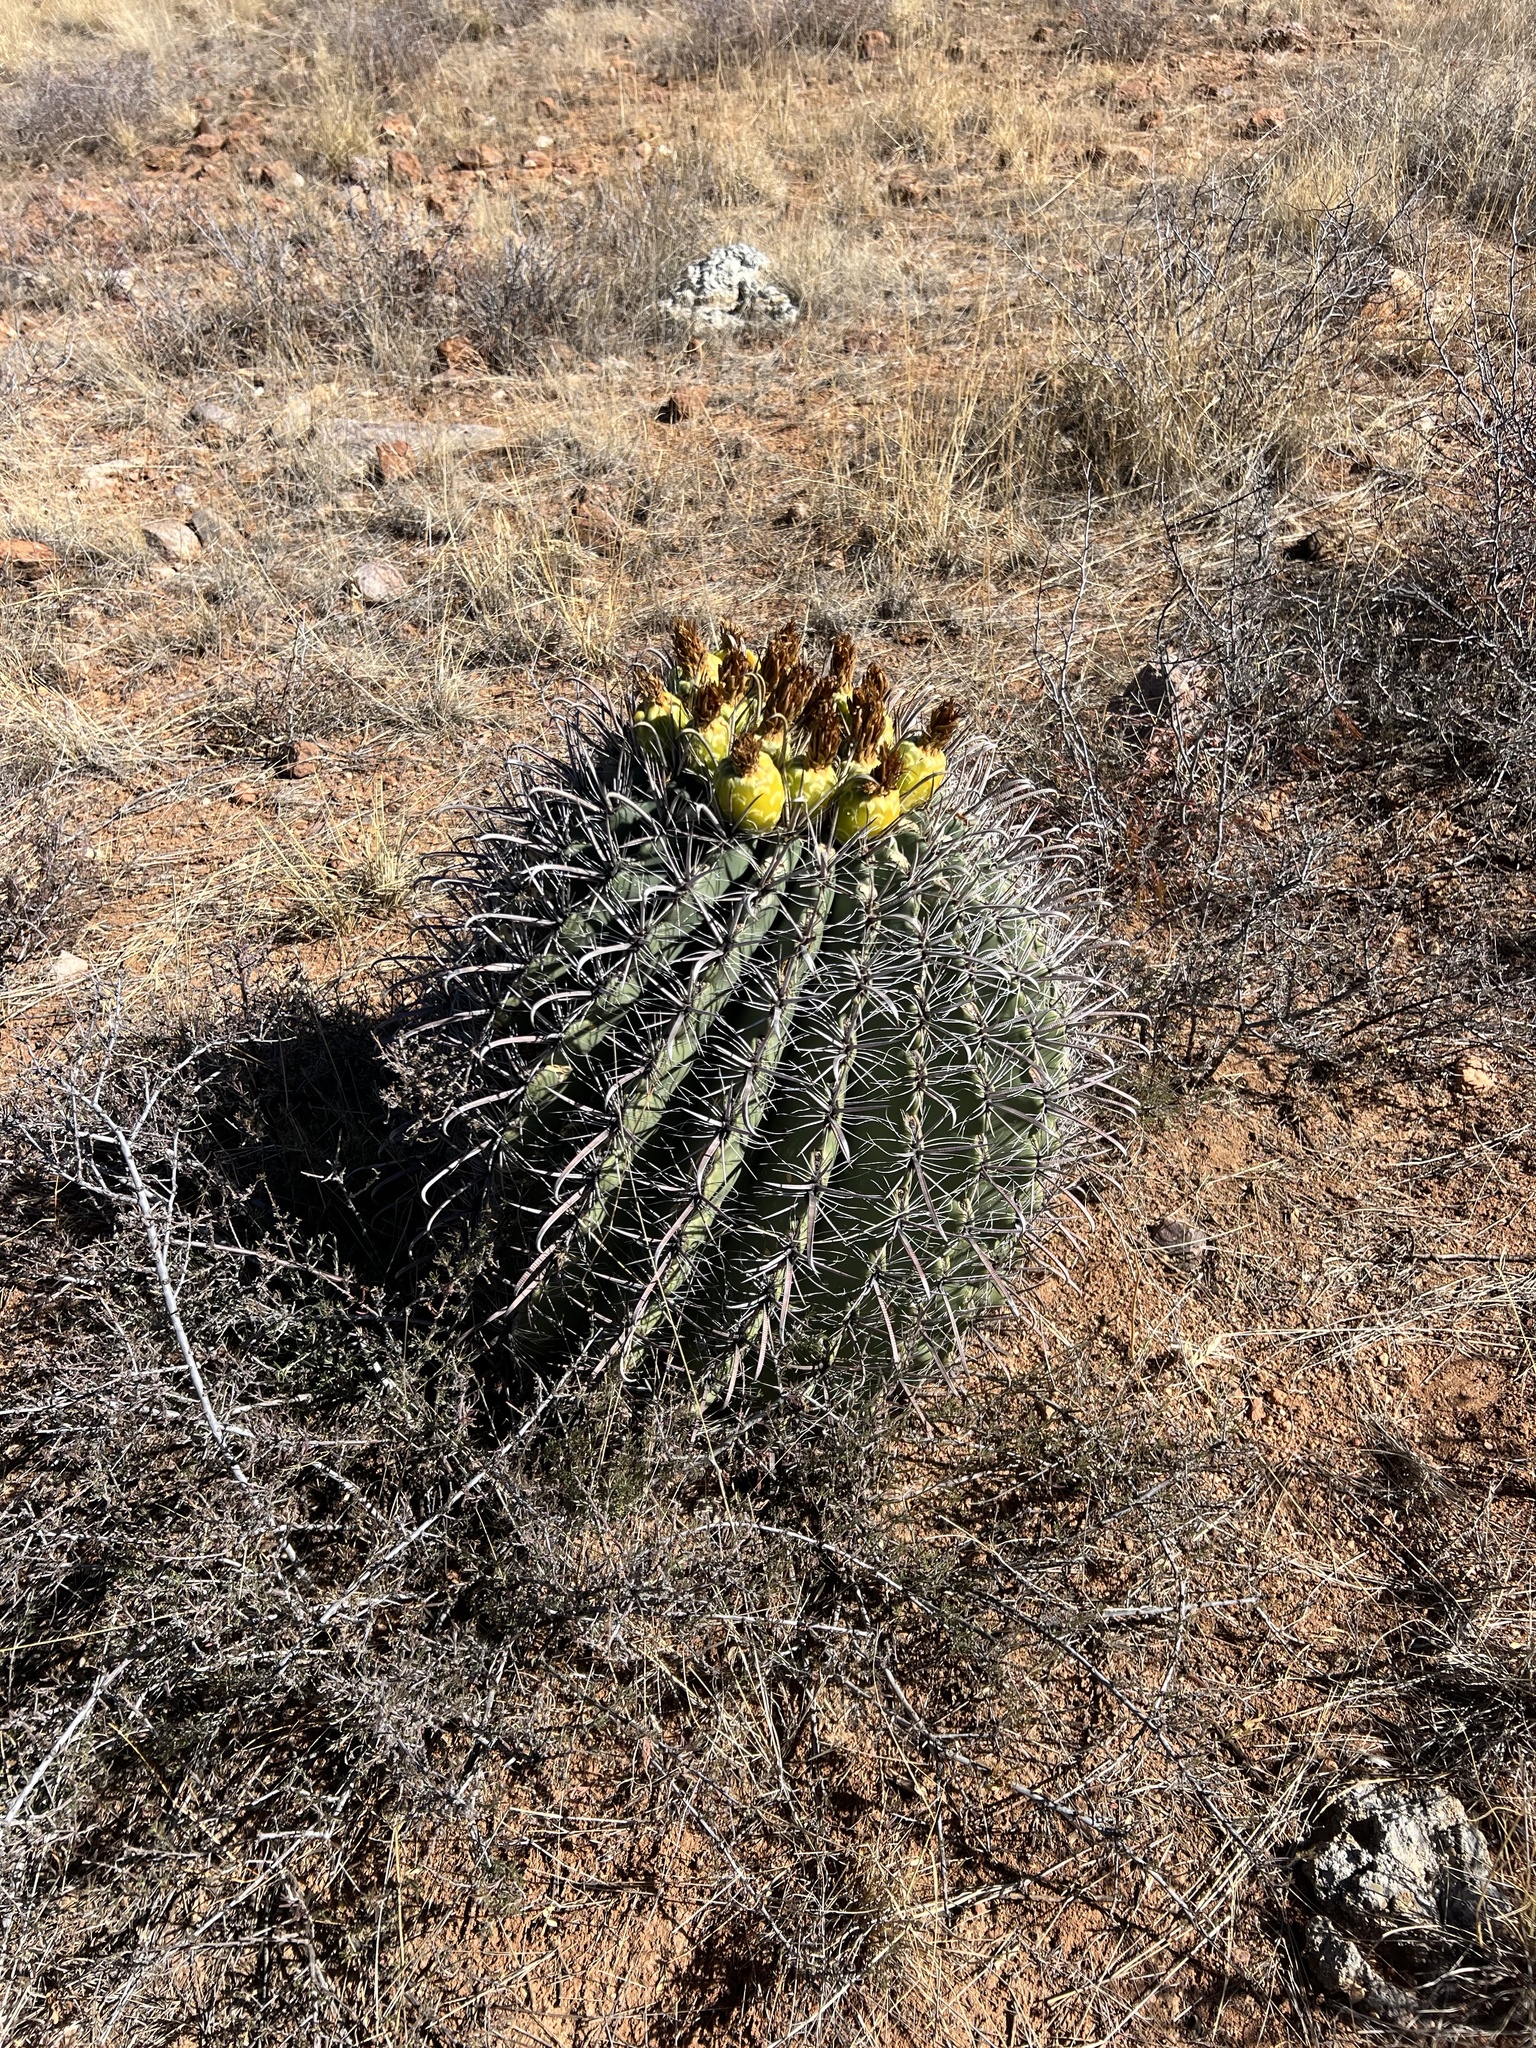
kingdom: Plantae
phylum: Tracheophyta
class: Magnoliopsida
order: Caryophyllales
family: Cactaceae
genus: Ferocactus
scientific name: Ferocactus wislizeni
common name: Candy barrel cactus
